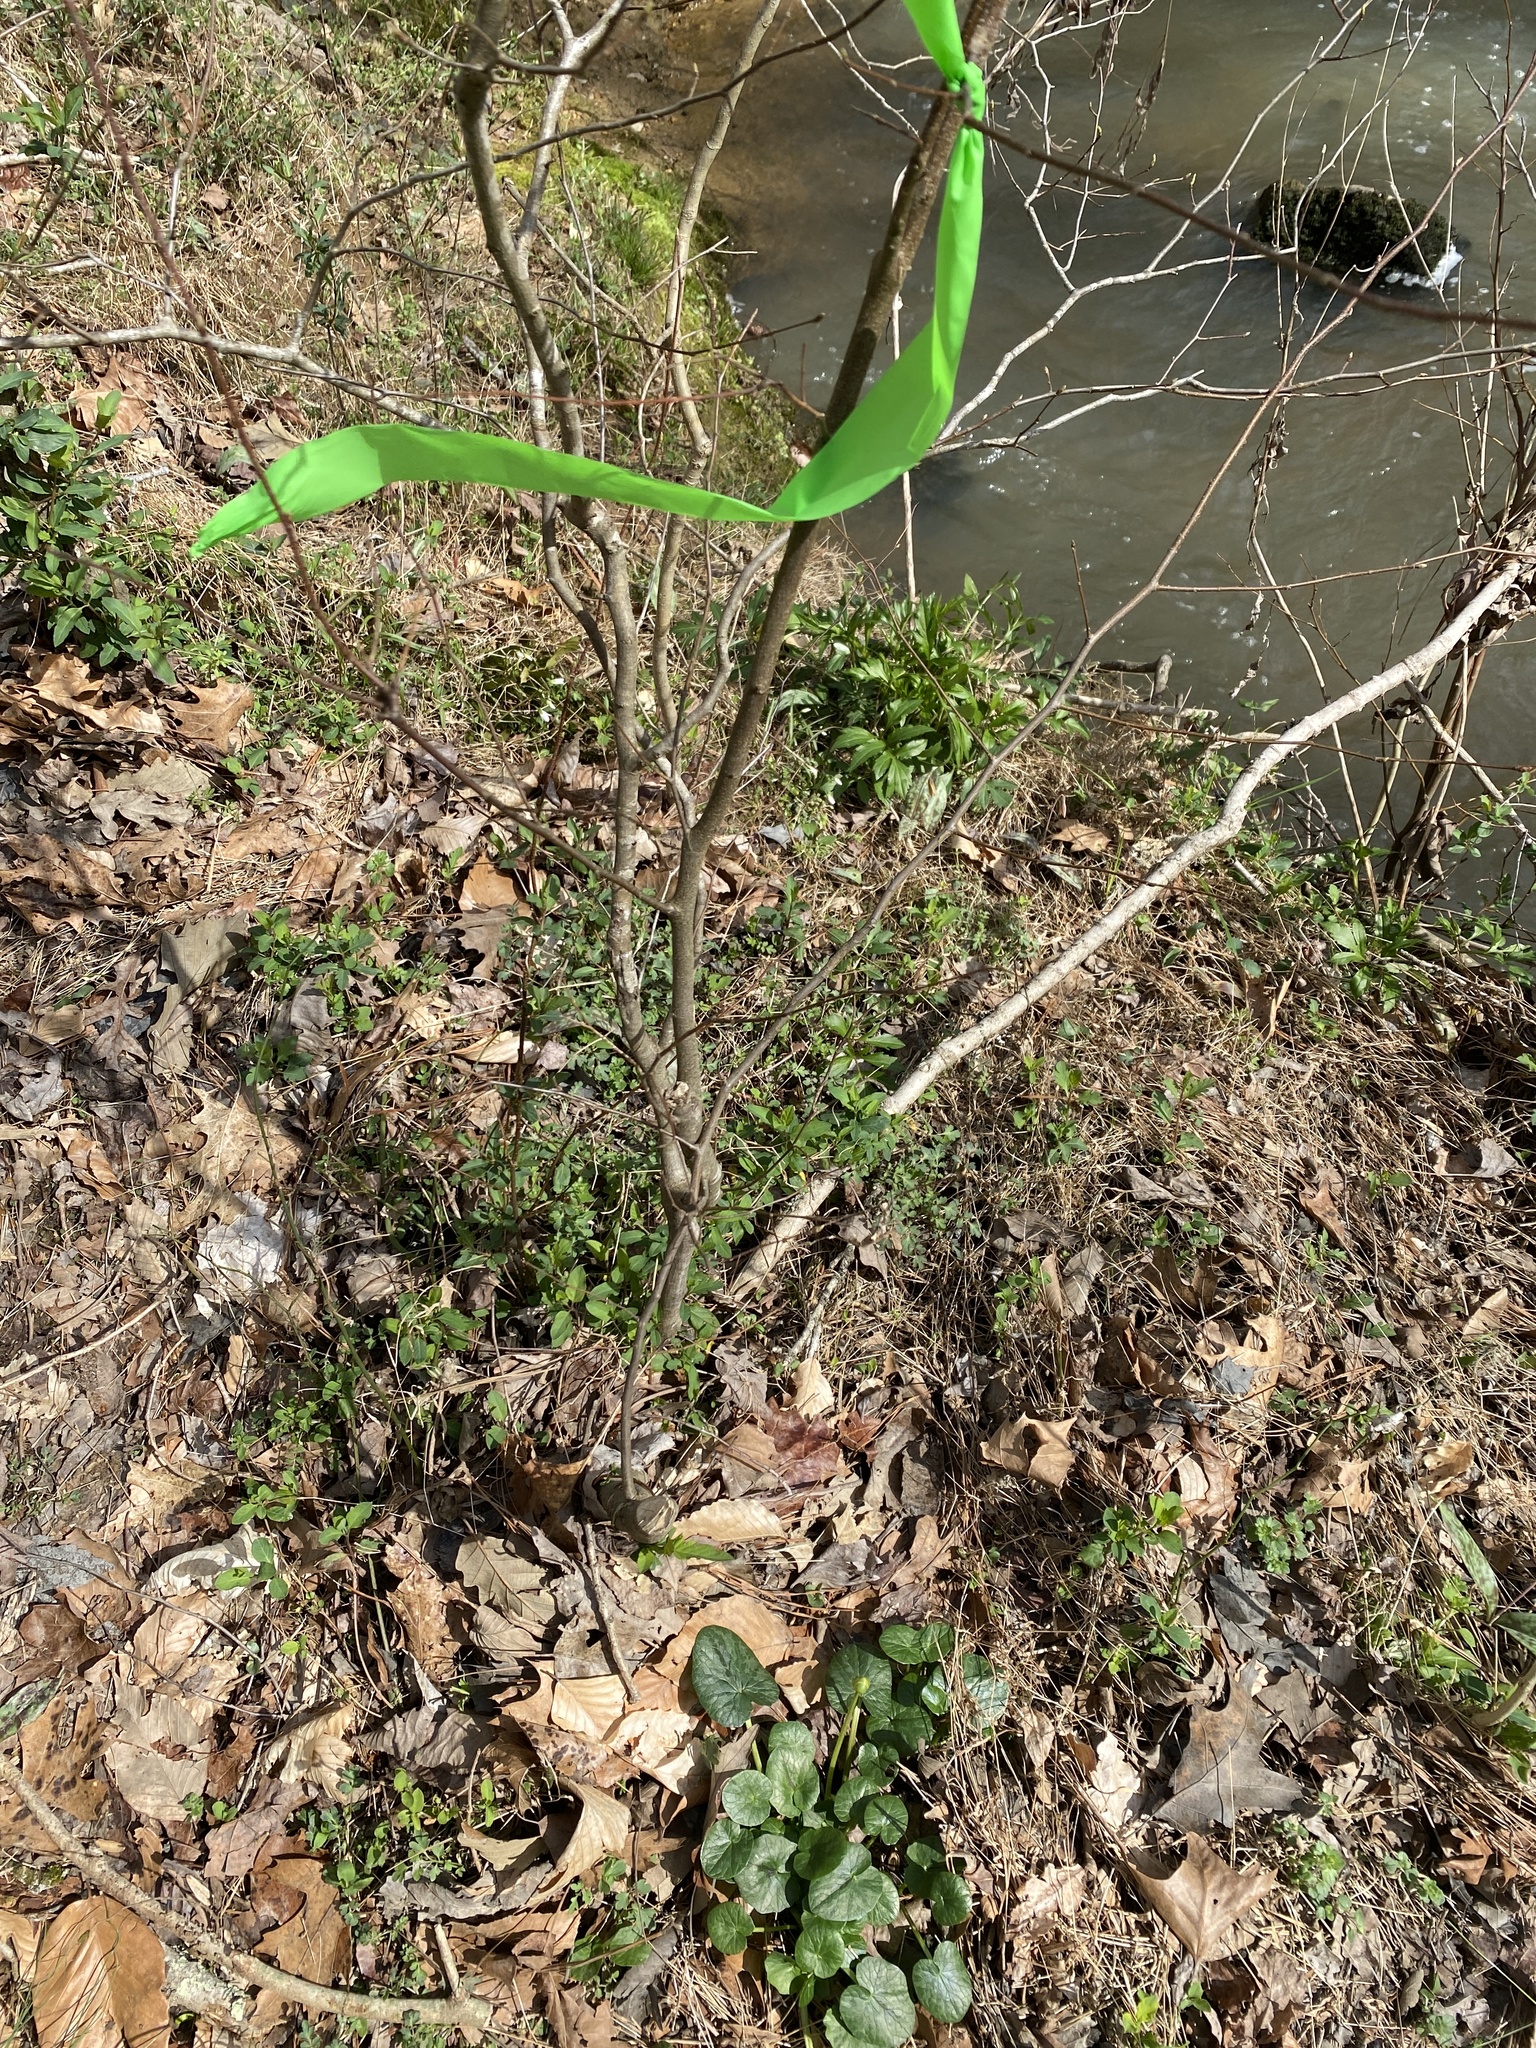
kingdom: Plantae
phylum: Tracheophyta
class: Magnoliopsida
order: Ranunculales
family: Ranunculaceae
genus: Ficaria
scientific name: Ficaria verna
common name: Lesser celandine
